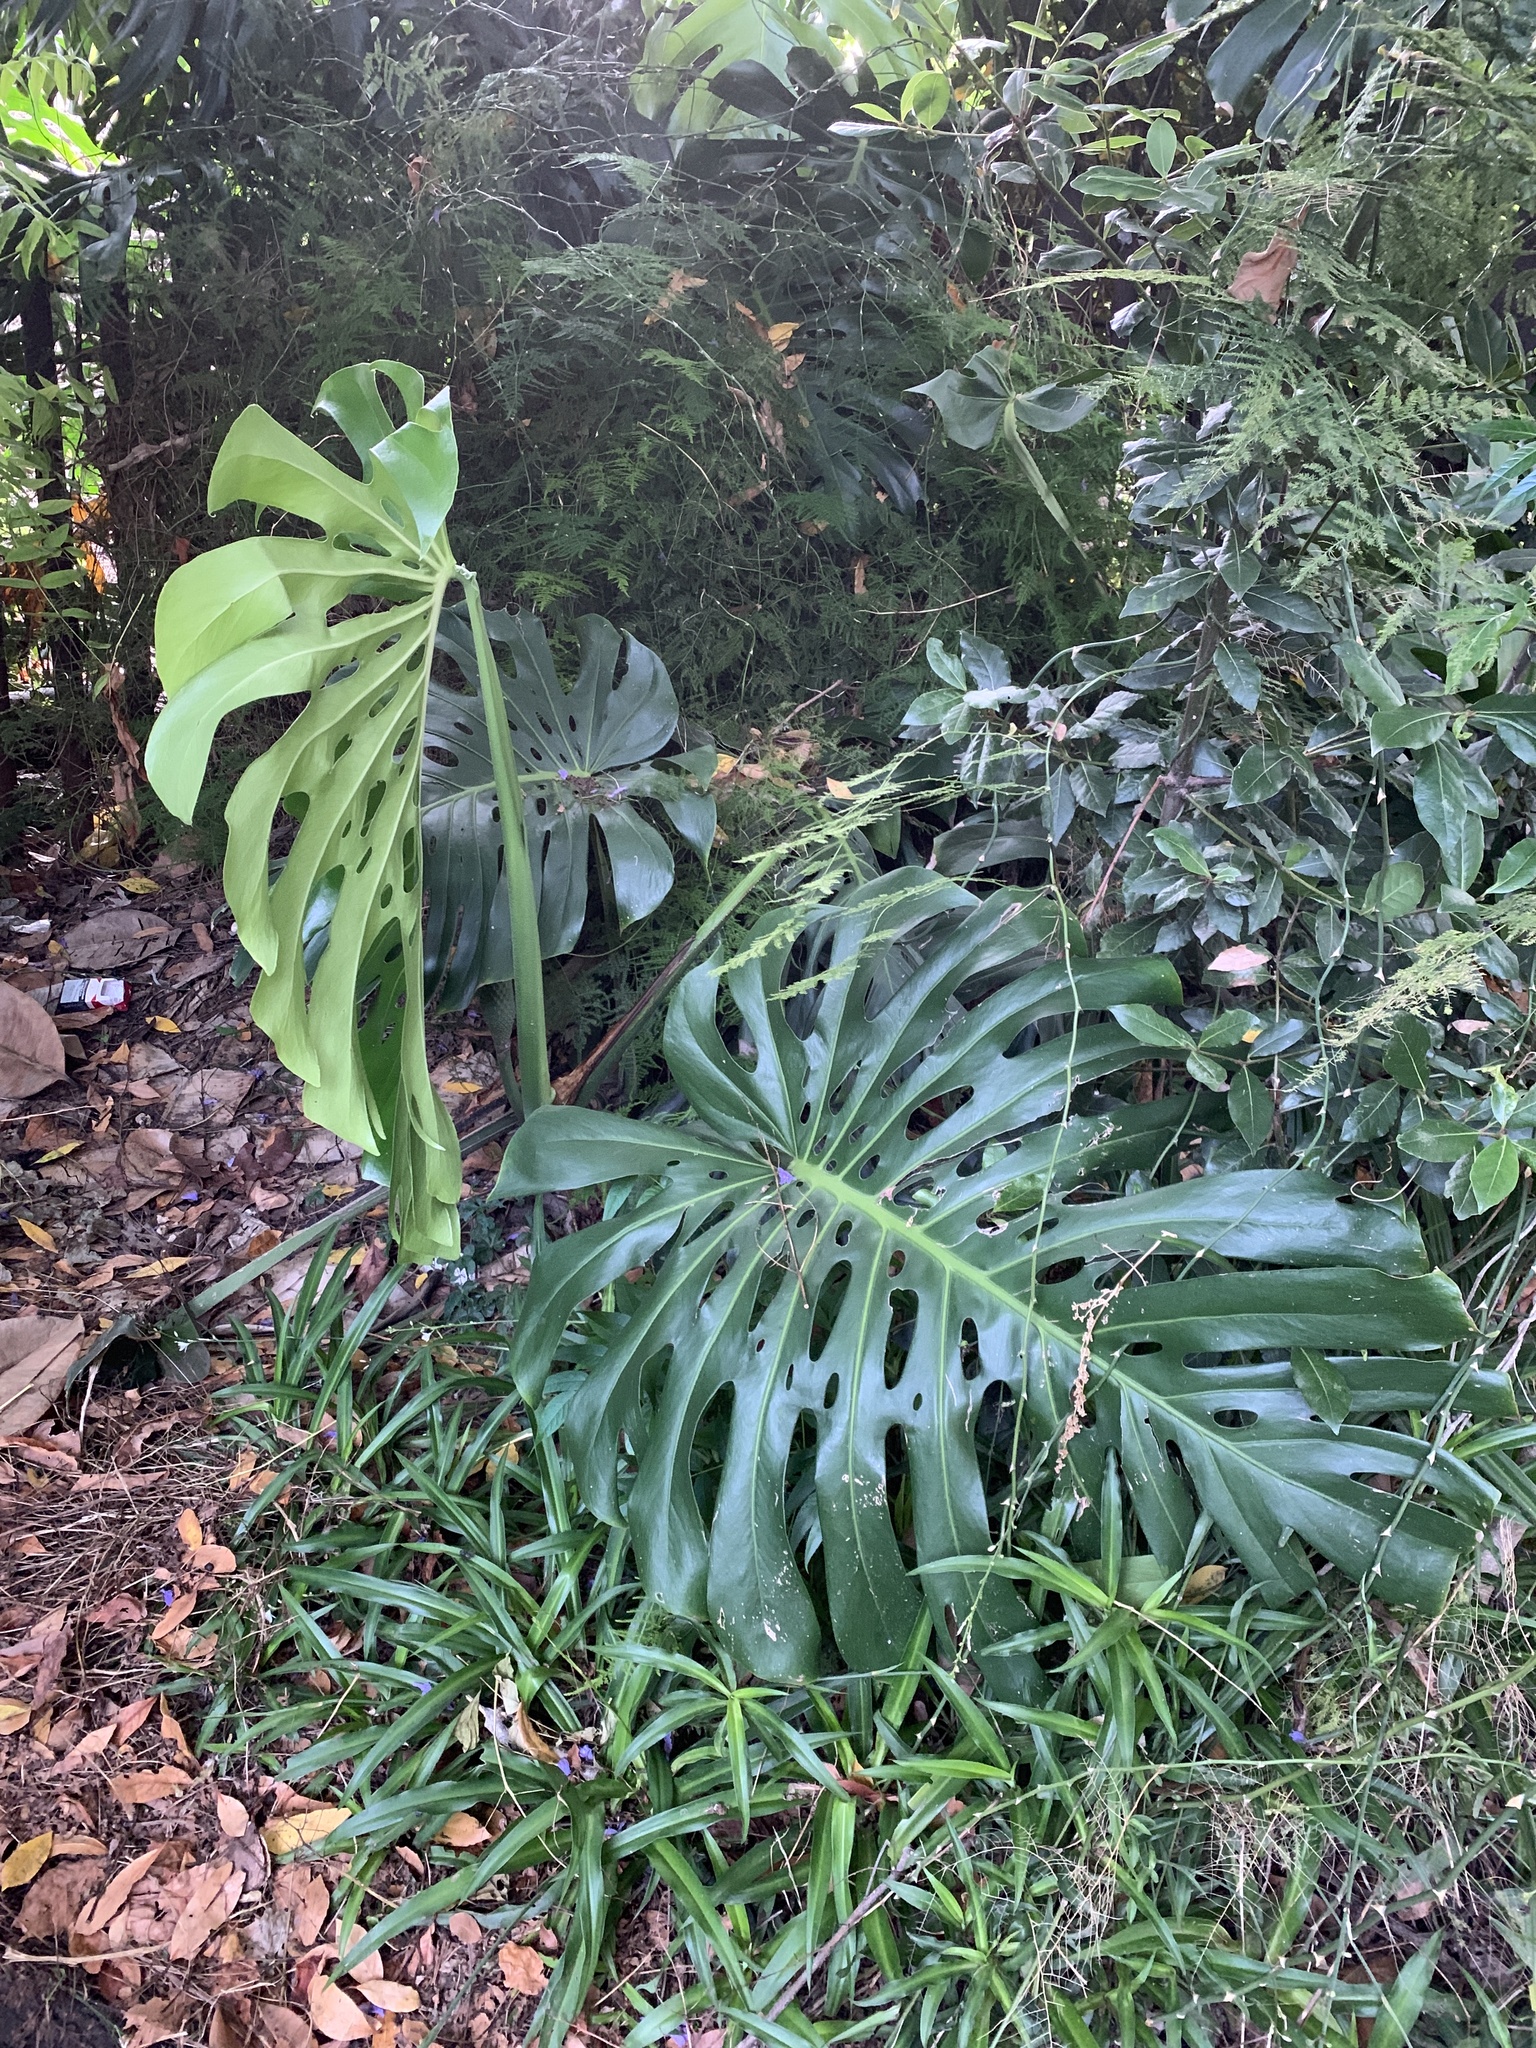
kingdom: Plantae
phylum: Tracheophyta
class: Liliopsida
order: Alismatales
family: Araceae
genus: Monstera
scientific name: Monstera deliciosa
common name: Cut-leaf-philodendron
